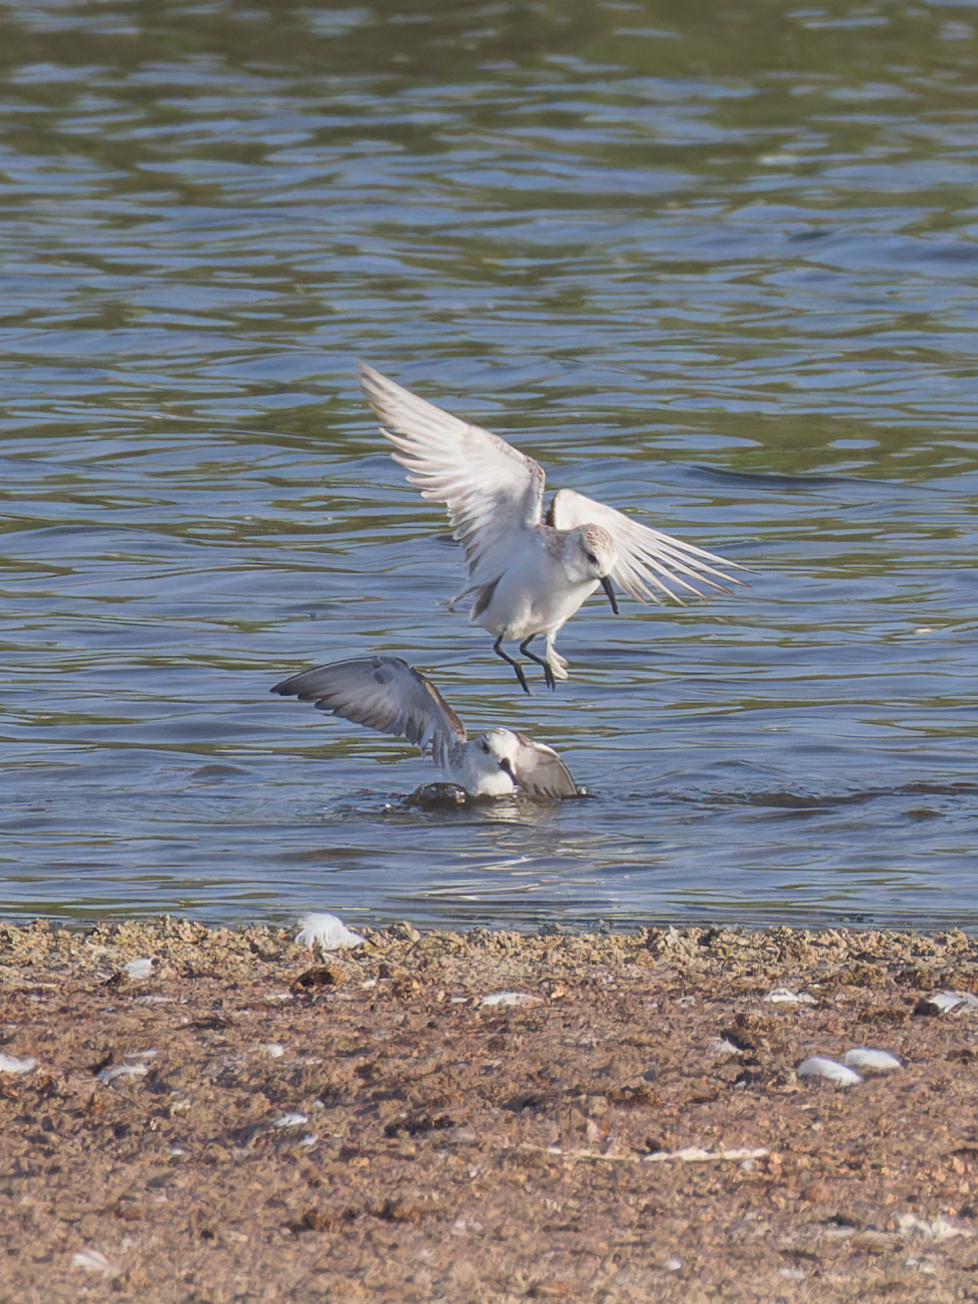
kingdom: Animalia
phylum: Chordata
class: Aves
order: Charadriiformes
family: Scolopacidae
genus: Calidris
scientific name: Calidris alba
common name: Sanderling
